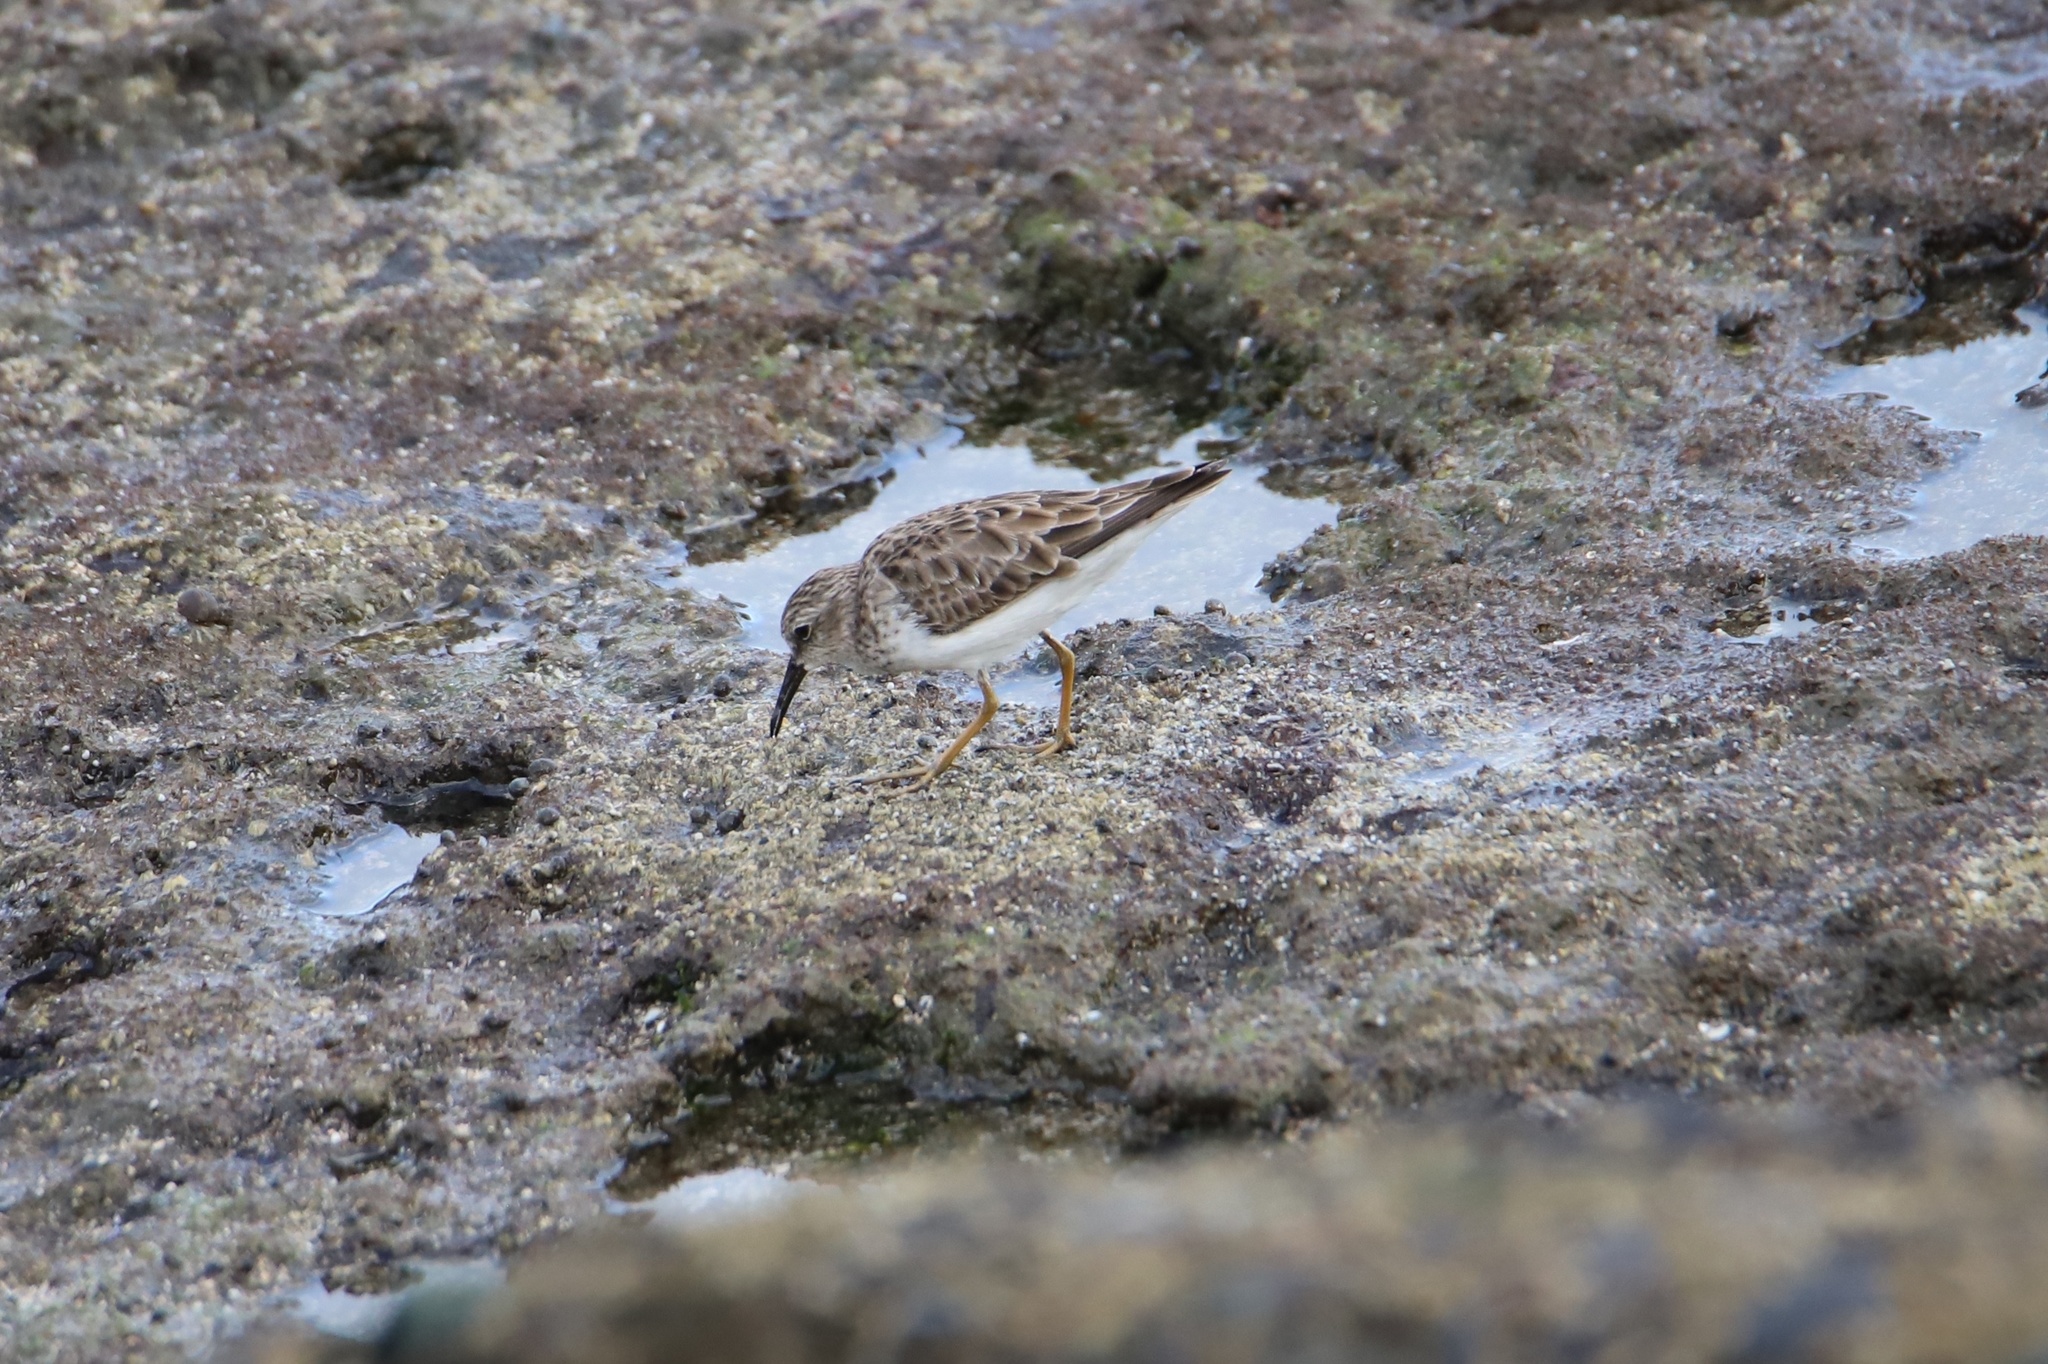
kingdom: Animalia
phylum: Chordata
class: Aves
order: Charadriiformes
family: Scolopacidae
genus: Calidris
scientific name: Calidris minutilla
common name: Least sandpiper
